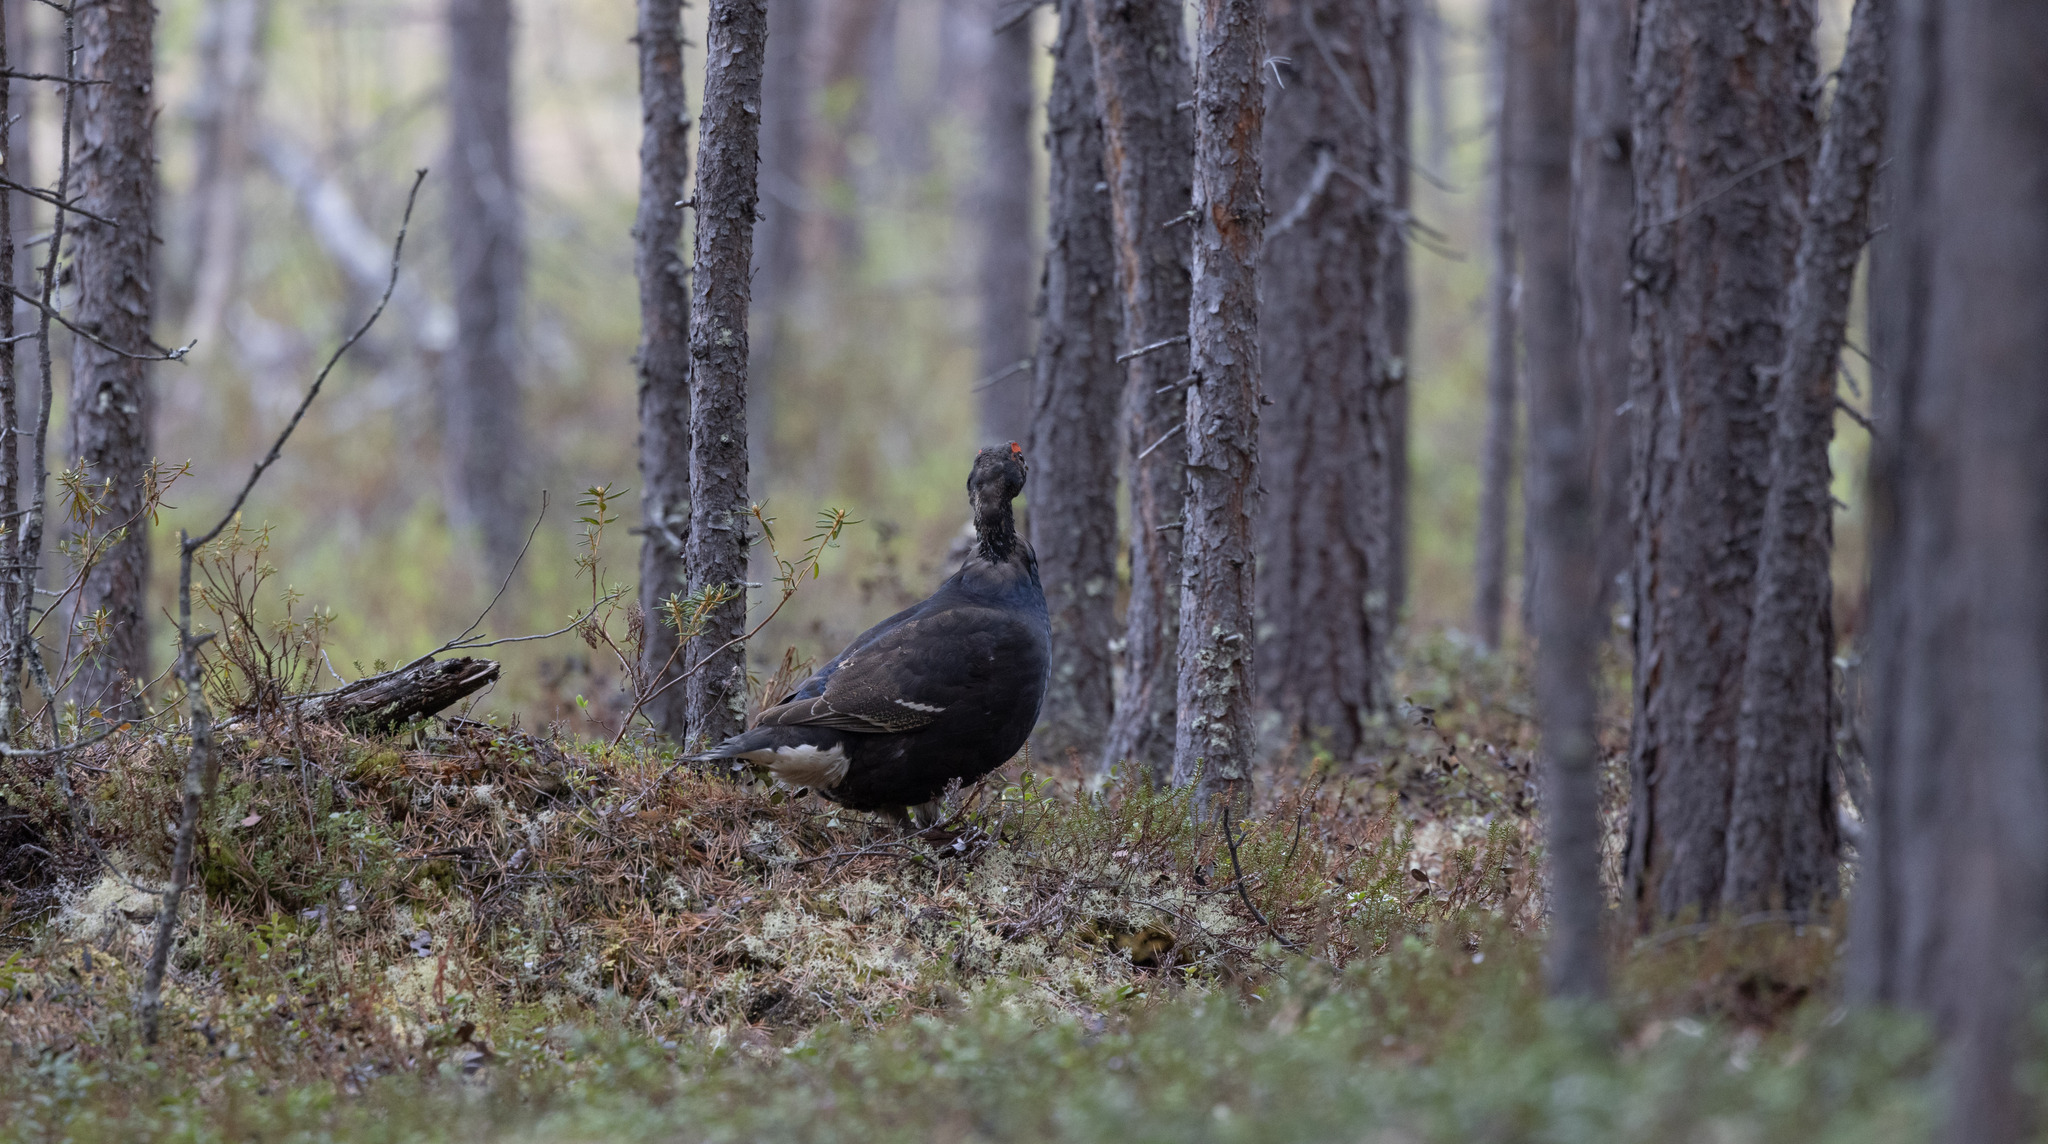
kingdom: Animalia
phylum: Chordata
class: Aves
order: Galliformes
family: Phasianidae
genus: Lyrurus
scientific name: Lyrurus tetrix
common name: Black grouse
